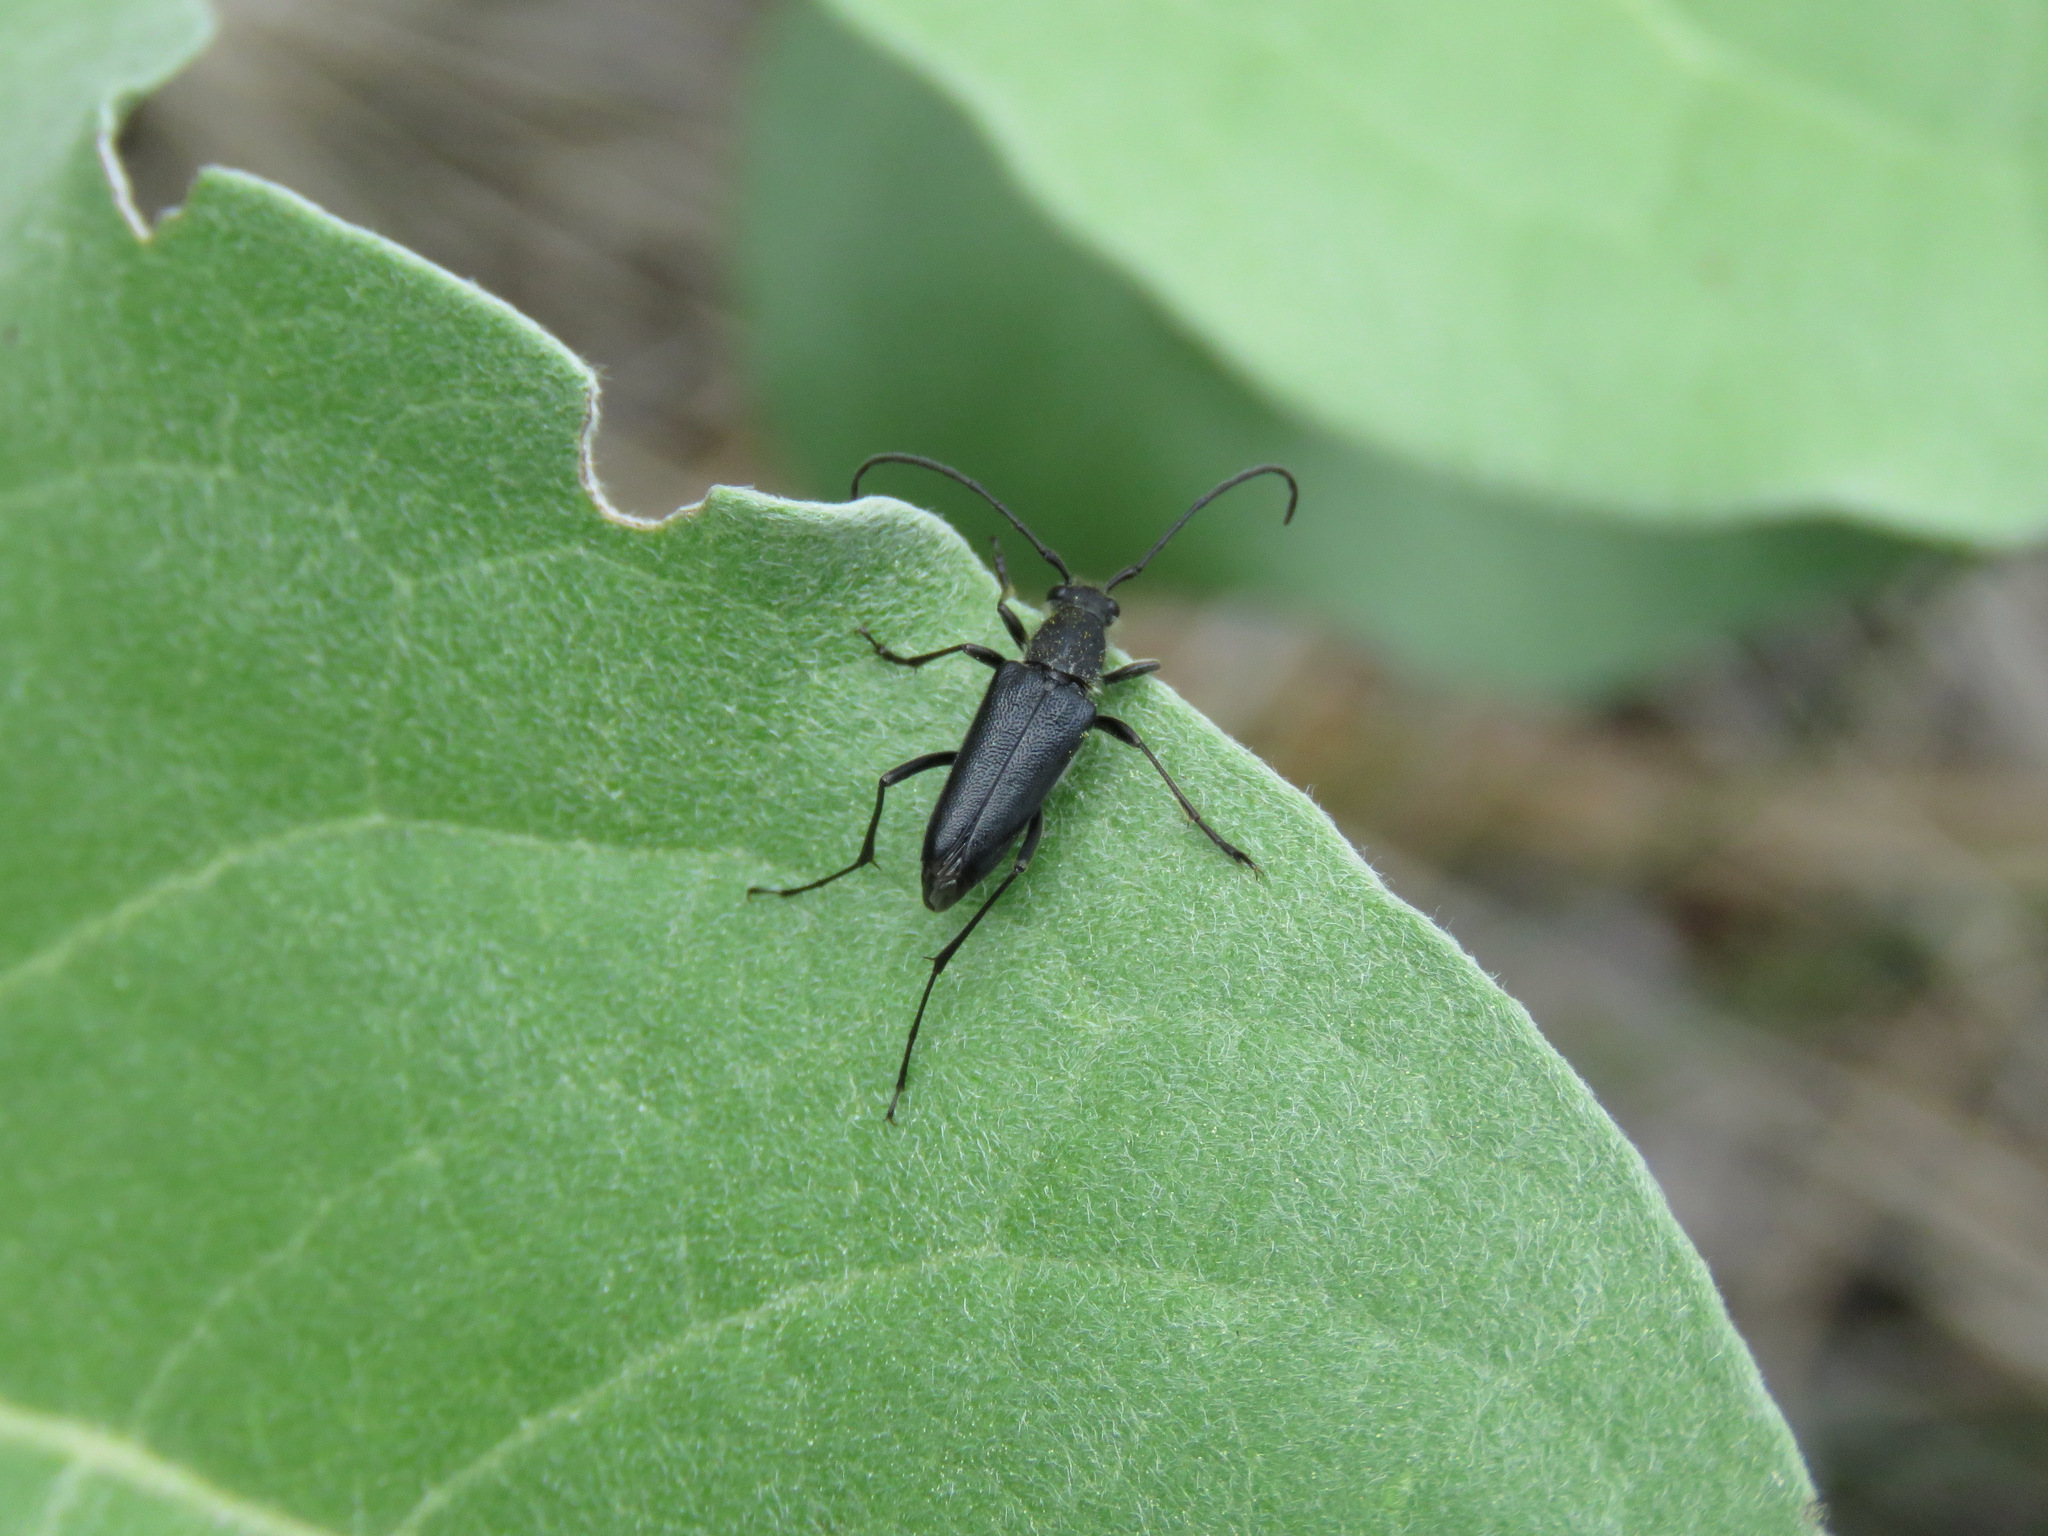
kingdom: Animalia
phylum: Arthropoda
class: Insecta
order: Coleoptera
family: Cerambycidae
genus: Anastrangalia
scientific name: Anastrangalia laetifica
